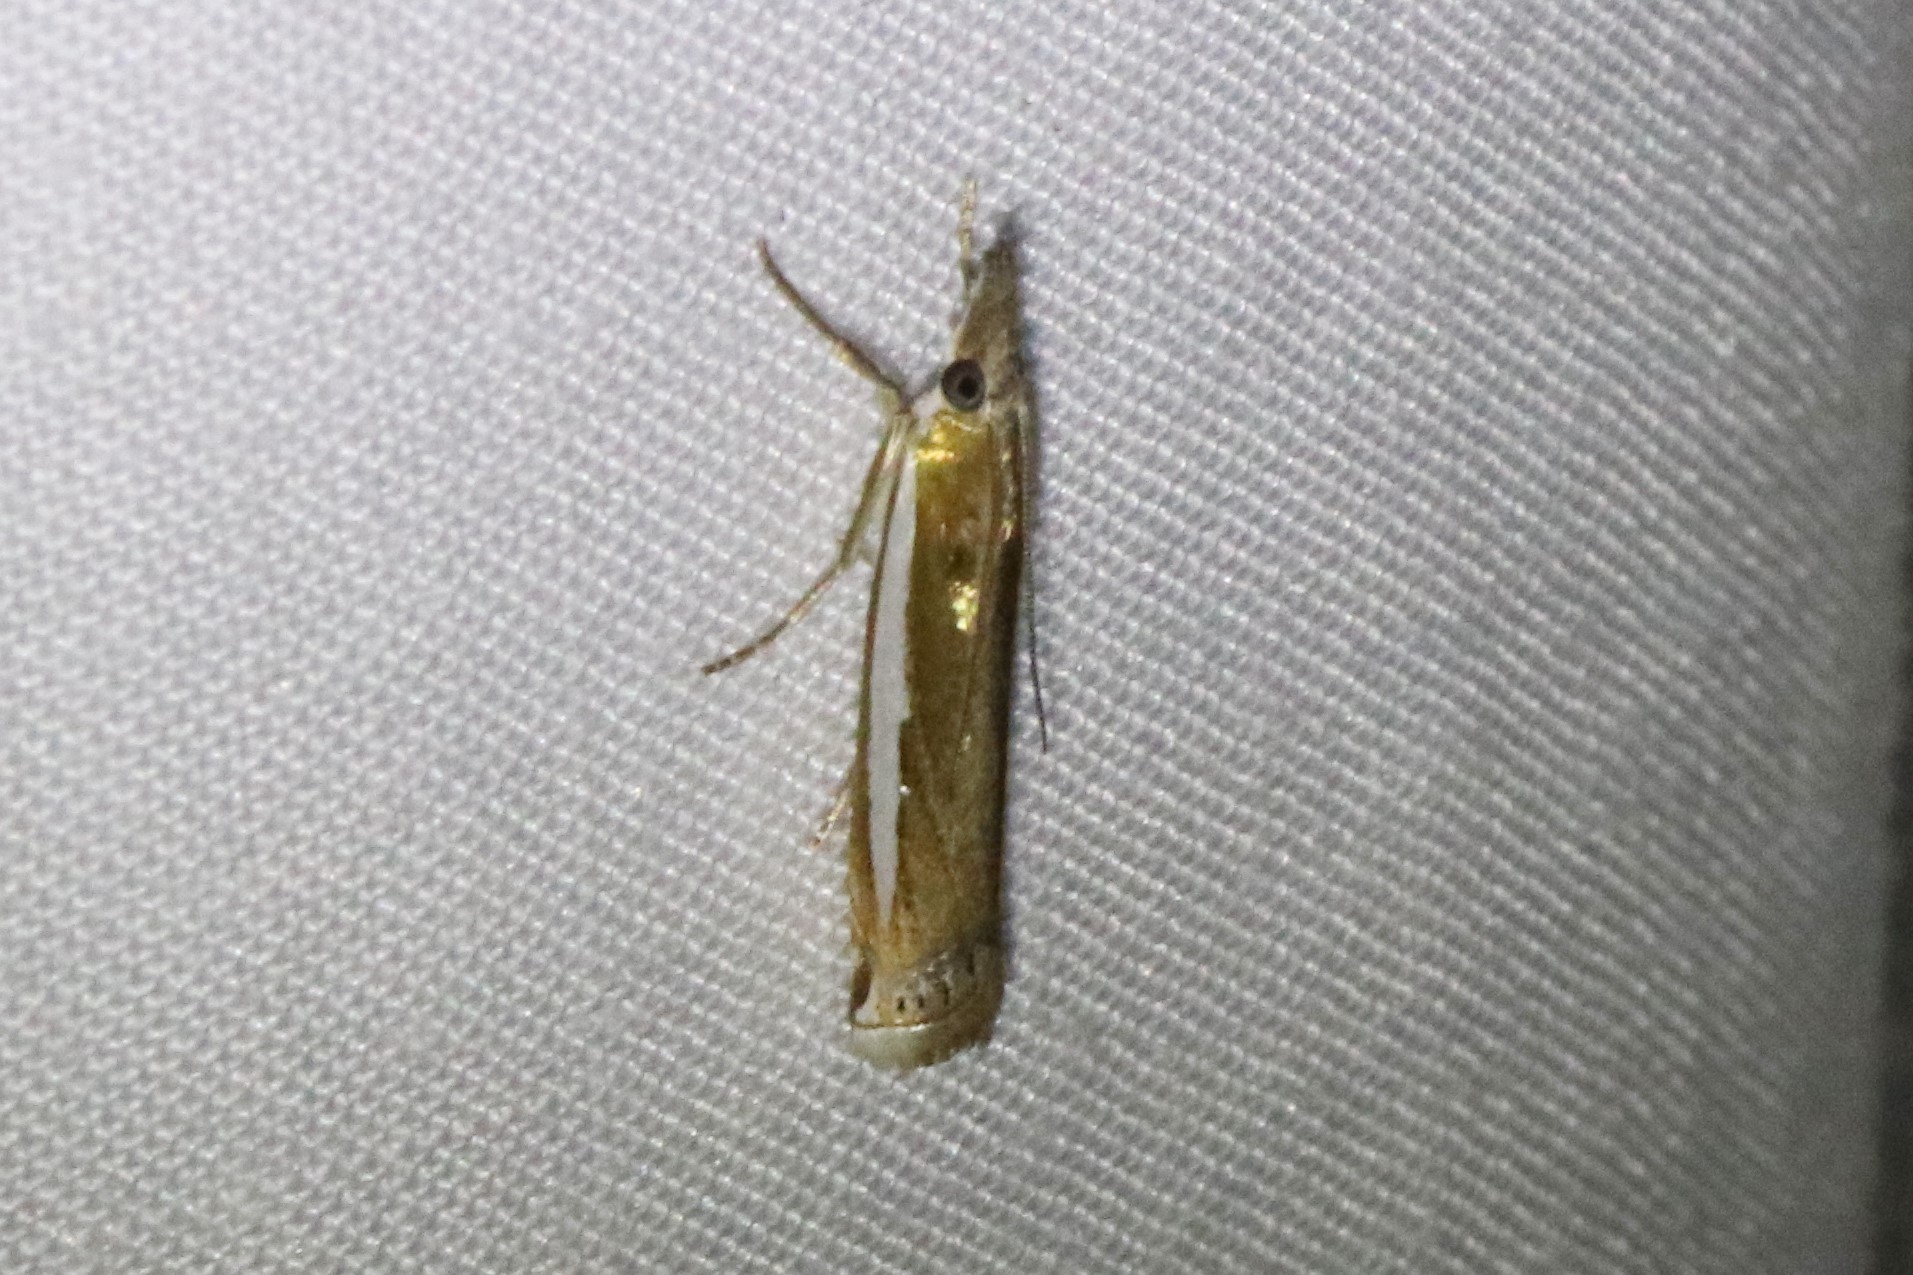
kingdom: Animalia
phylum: Arthropoda
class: Insecta
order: Lepidoptera
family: Crambidae
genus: Crambus
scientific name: Crambus praefectellus
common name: Common grass-veneer
